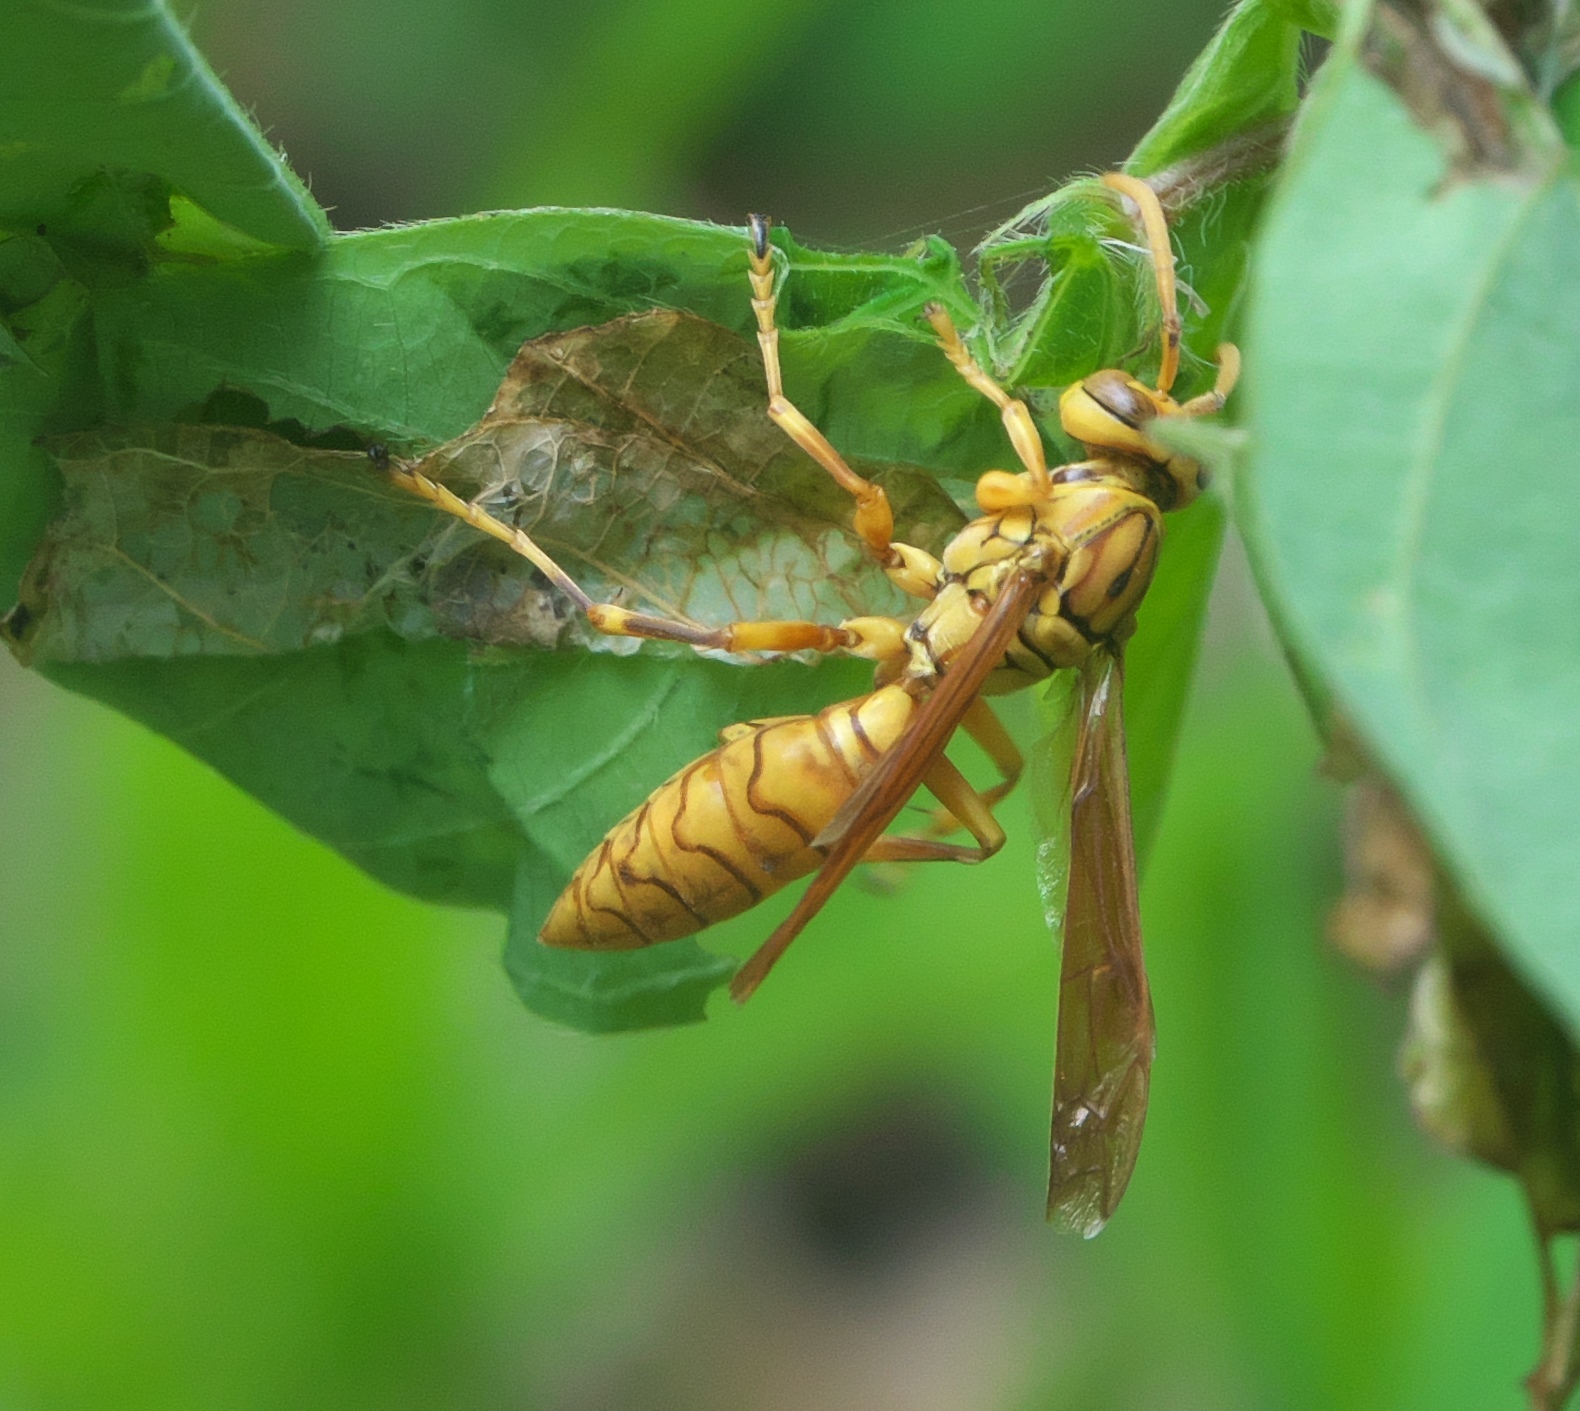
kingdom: Animalia
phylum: Arthropoda
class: Insecta
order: Hymenoptera
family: Eumenidae
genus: Polistes
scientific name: Polistes olivaceus
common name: Paper wasp
